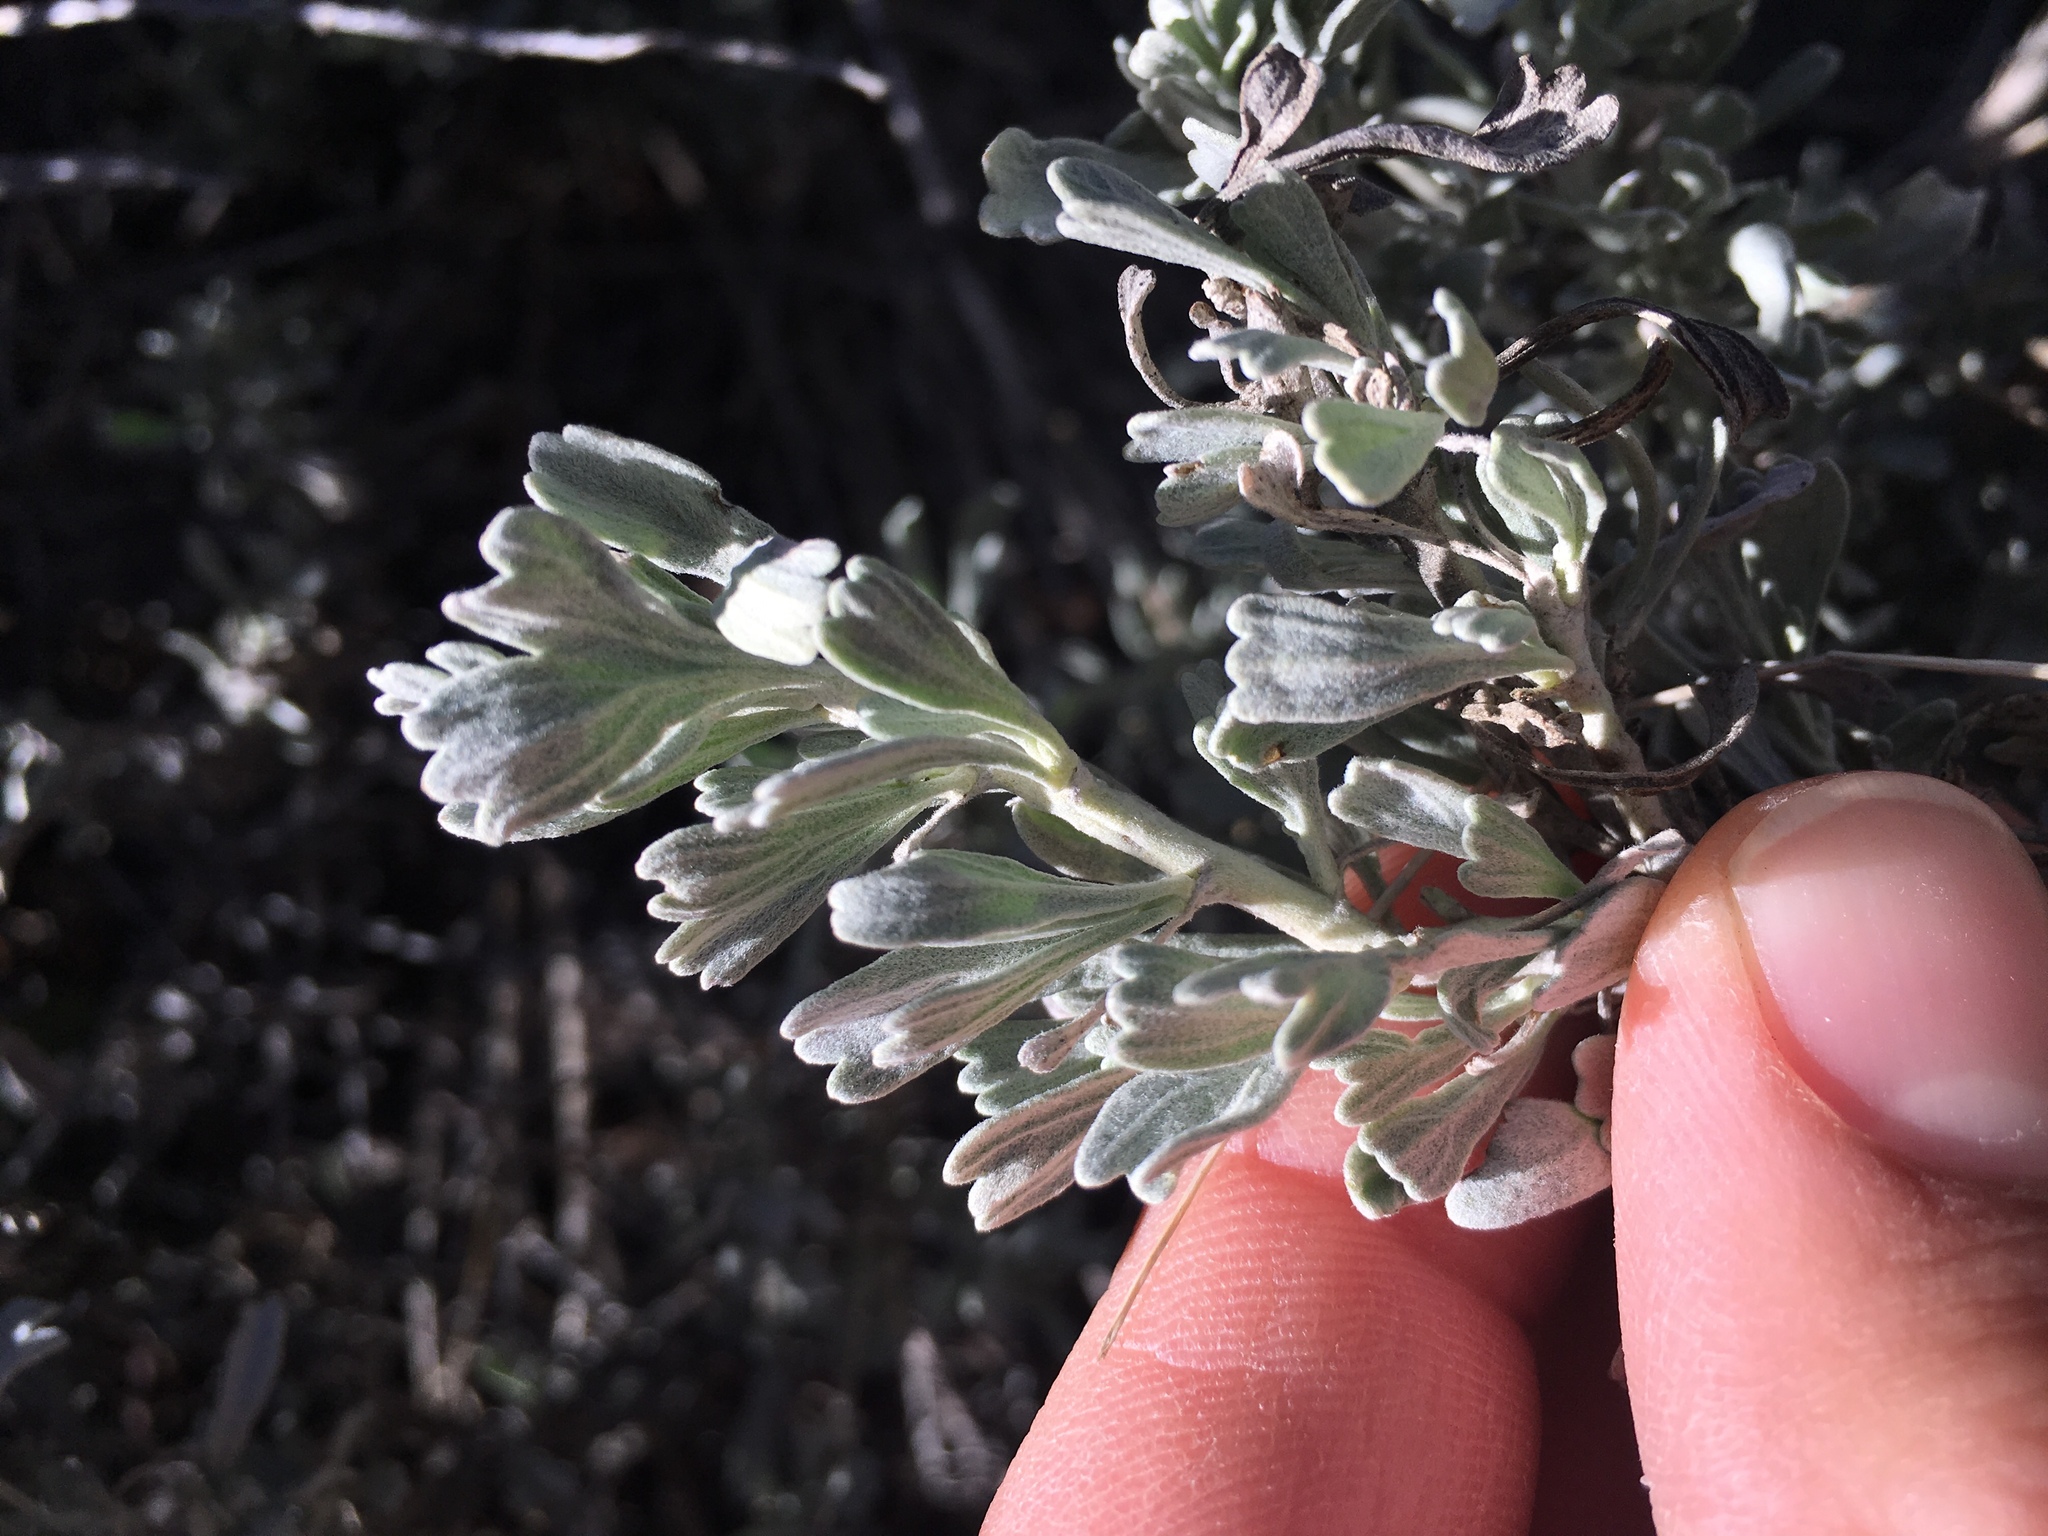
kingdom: Plantae
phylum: Tracheophyta
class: Magnoliopsida
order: Asterales
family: Asteraceae
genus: Artemisia
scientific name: Artemisia tridentata
